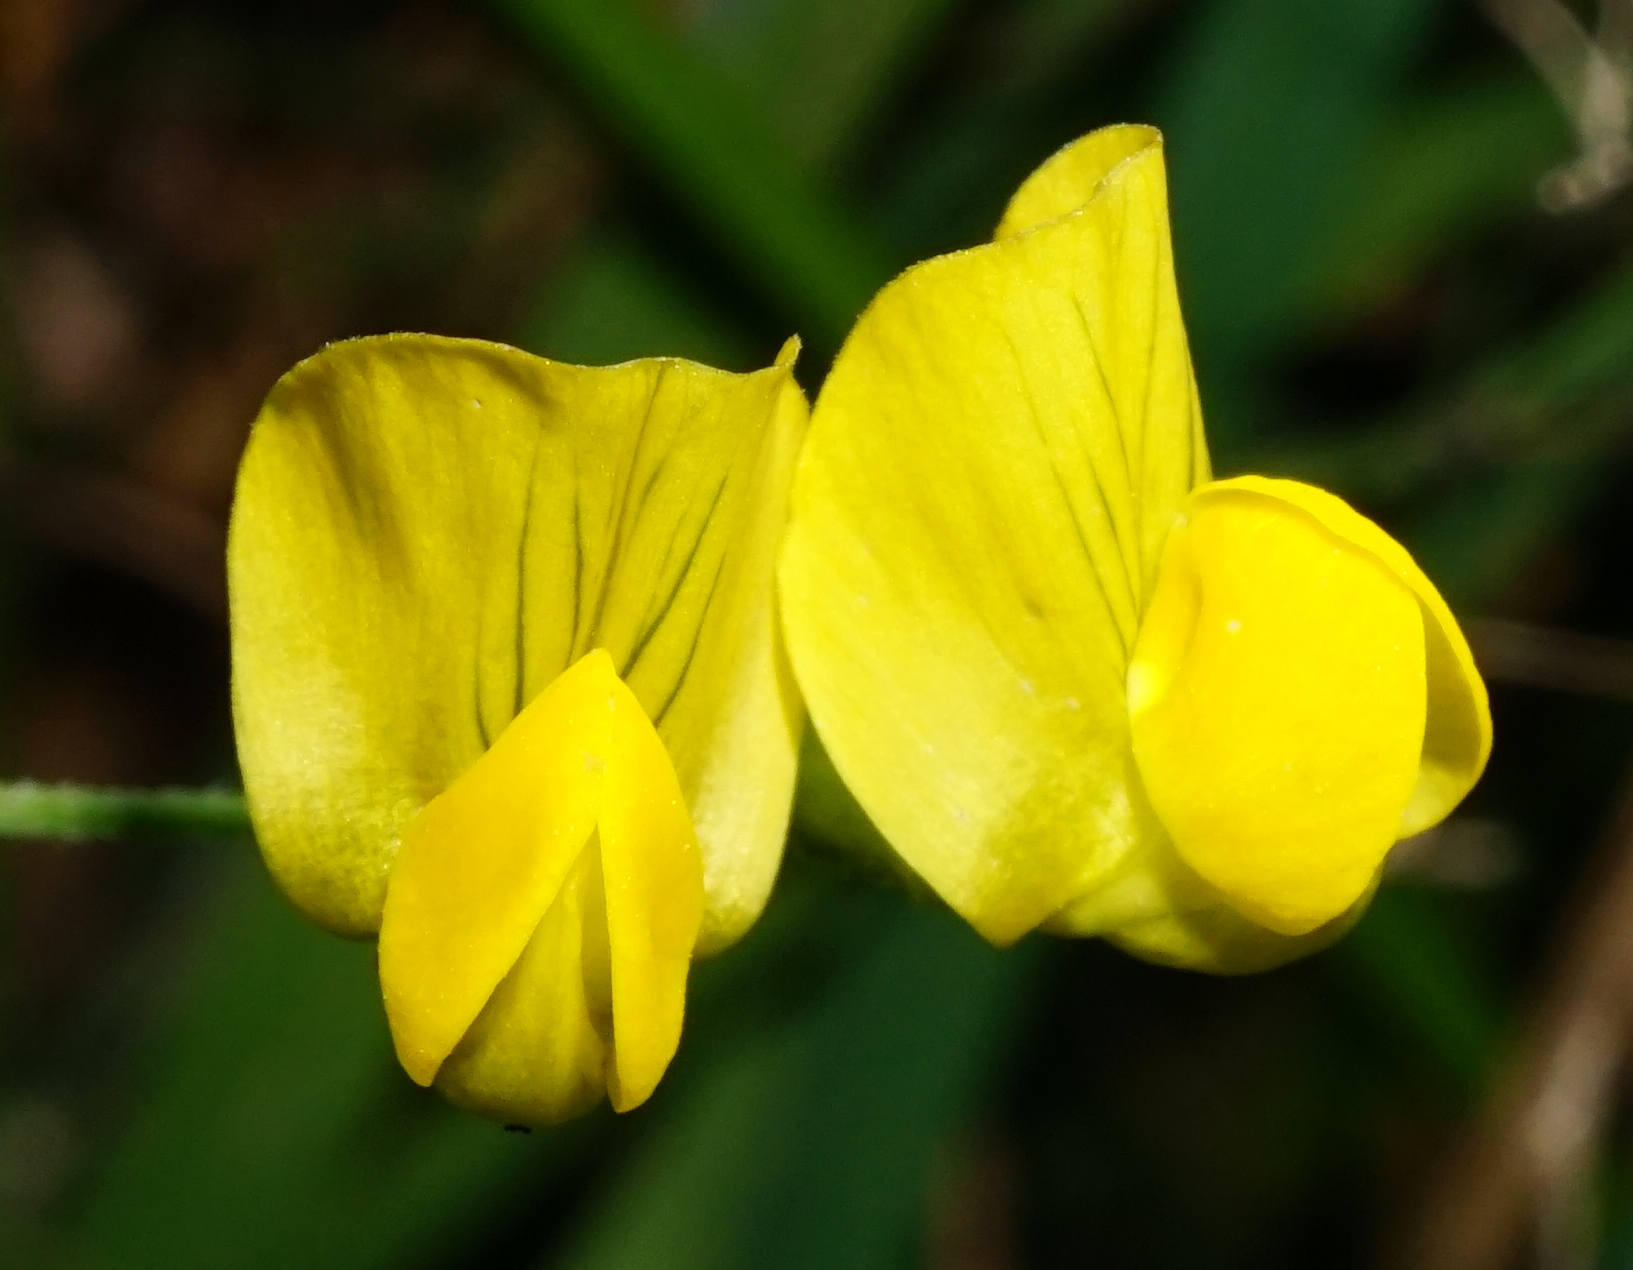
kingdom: Plantae
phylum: Tracheophyta
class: Magnoliopsida
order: Fabales
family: Fabaceae
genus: Lathyrus
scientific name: Lathyrus pratensis
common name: Meadow vetchling
